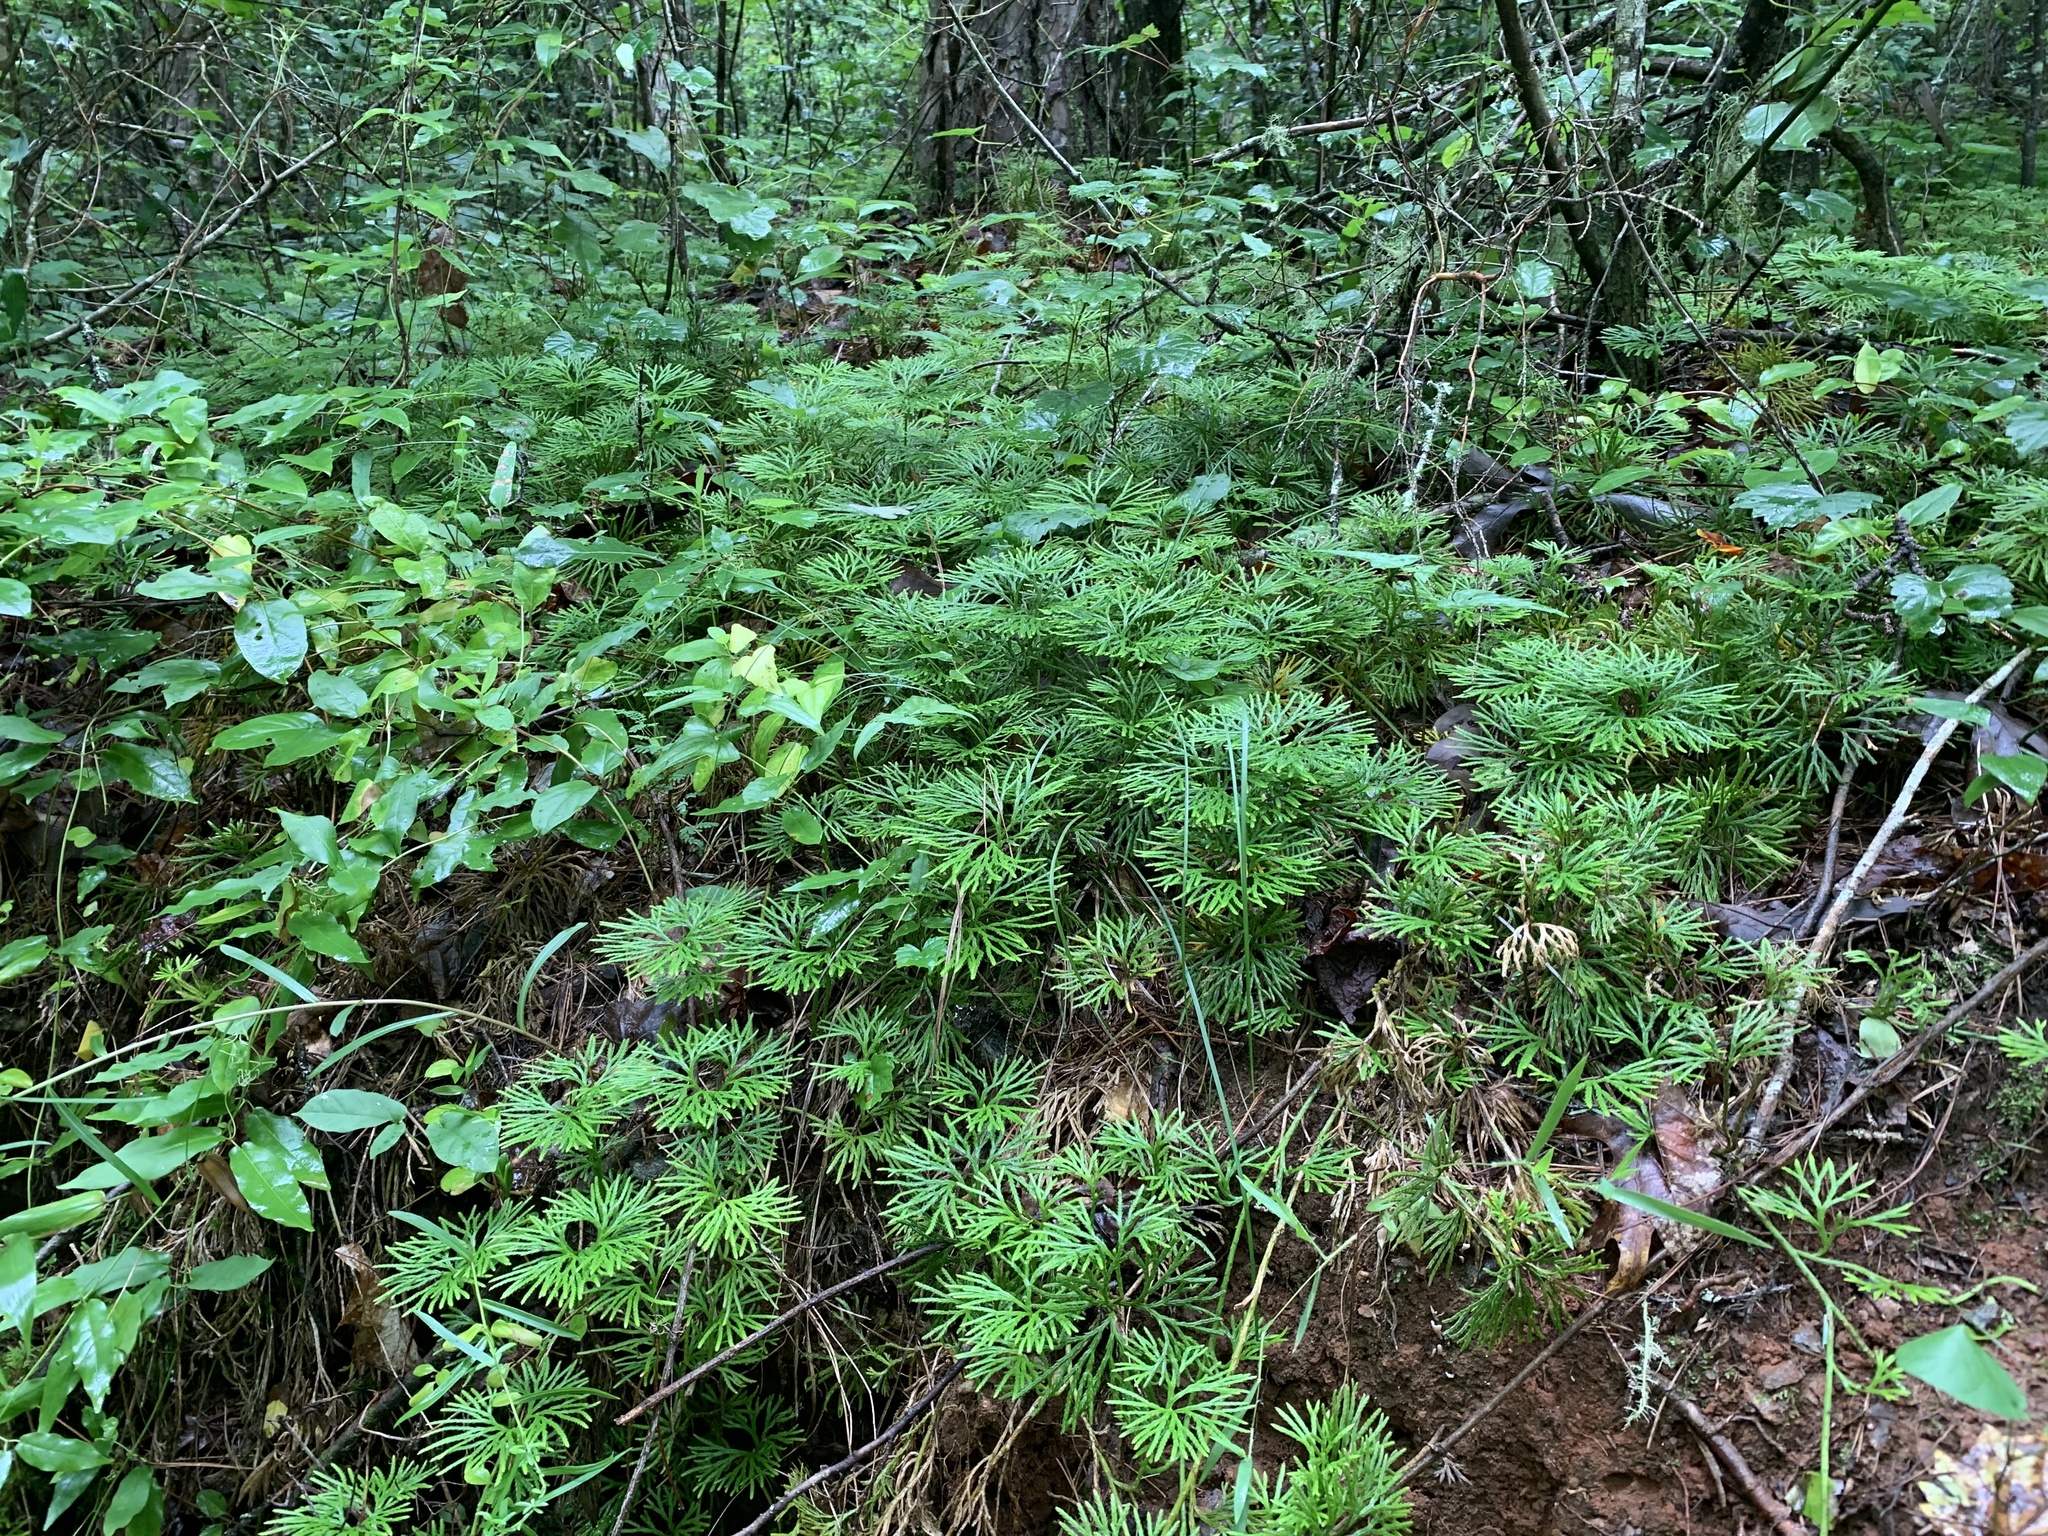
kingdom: Plantae
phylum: Tracheophyta
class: Lycopodiopsida
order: Lycopodiales
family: Lycopodiaceae
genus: Diphasiastrum
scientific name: Diphasiastrum digitatum
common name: Southern running-pine
